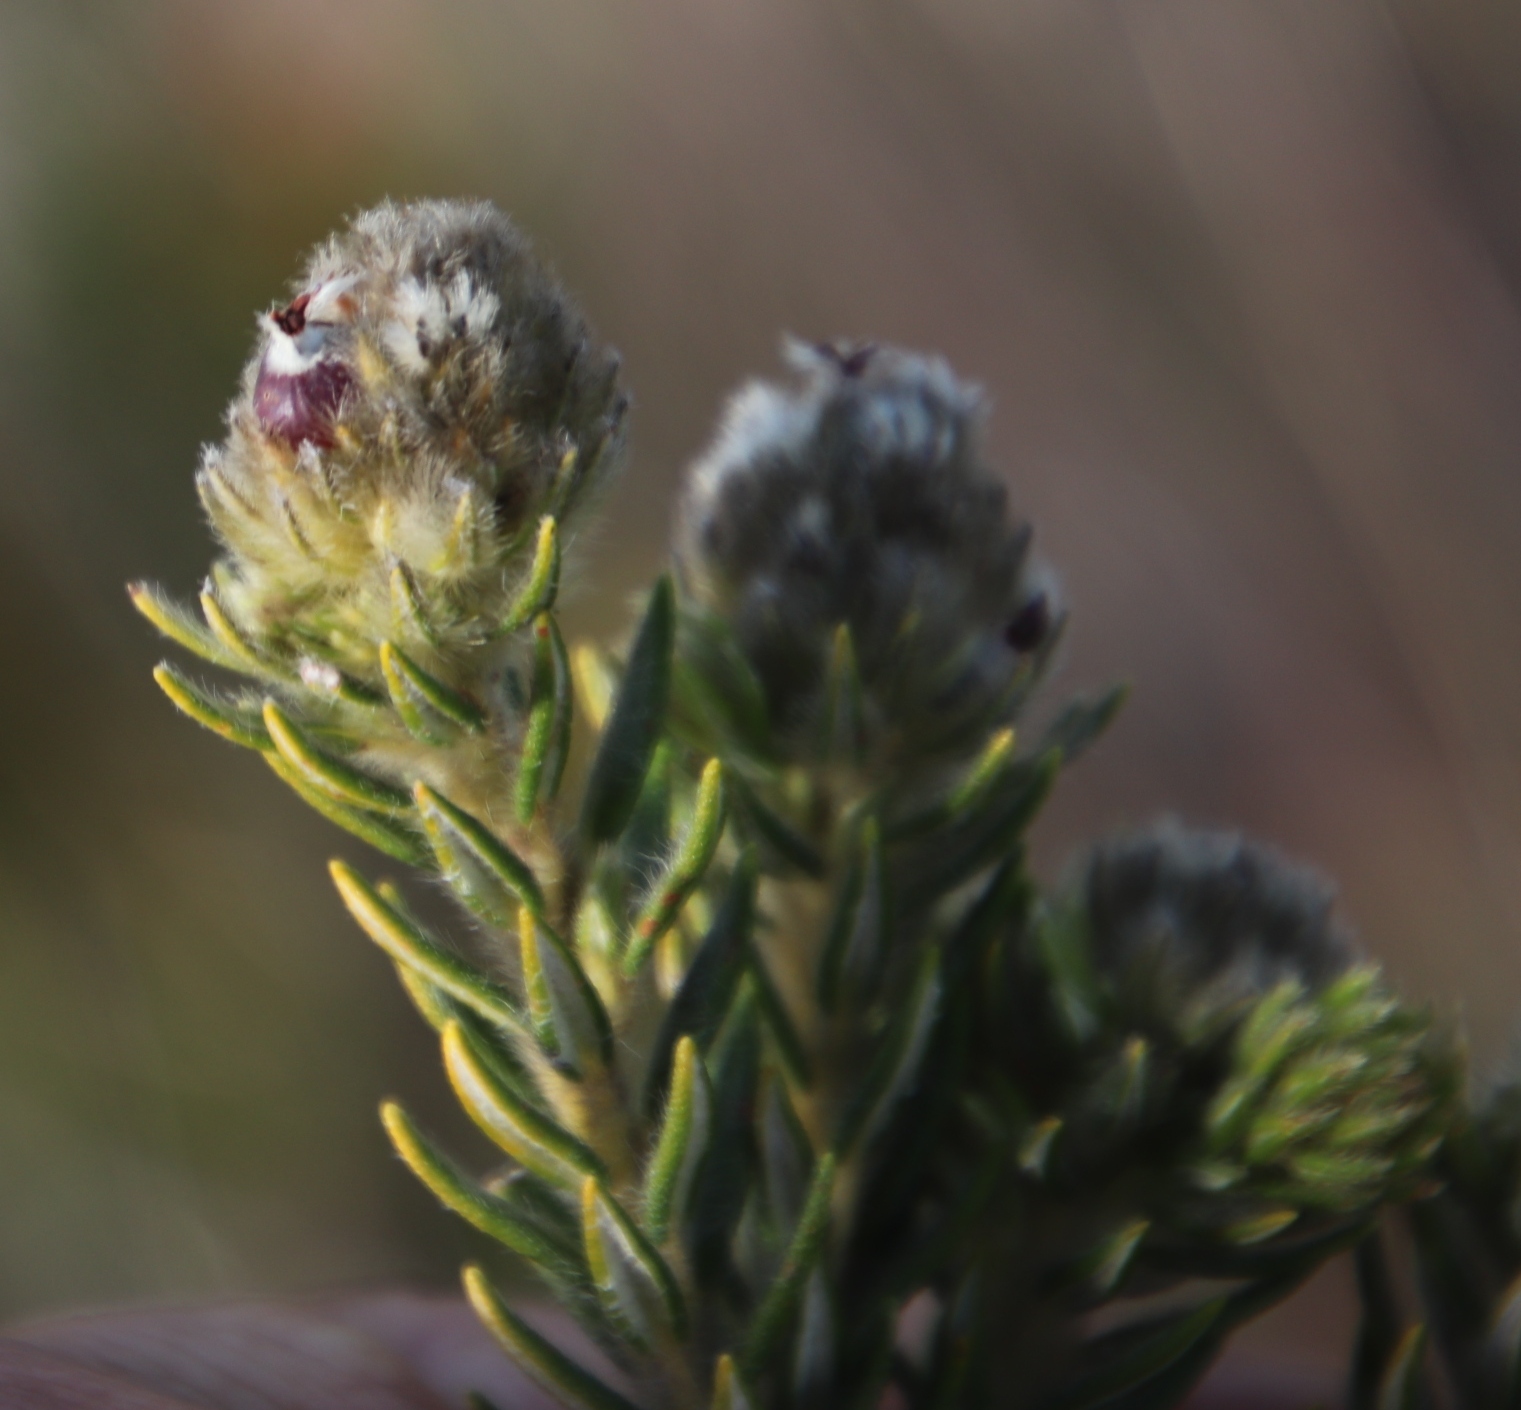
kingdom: Plantae
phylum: Tracheophyta
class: Magnoliopsida
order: Rosales
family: Rhamnaceae
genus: Phylica
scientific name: Phylica strigosa
